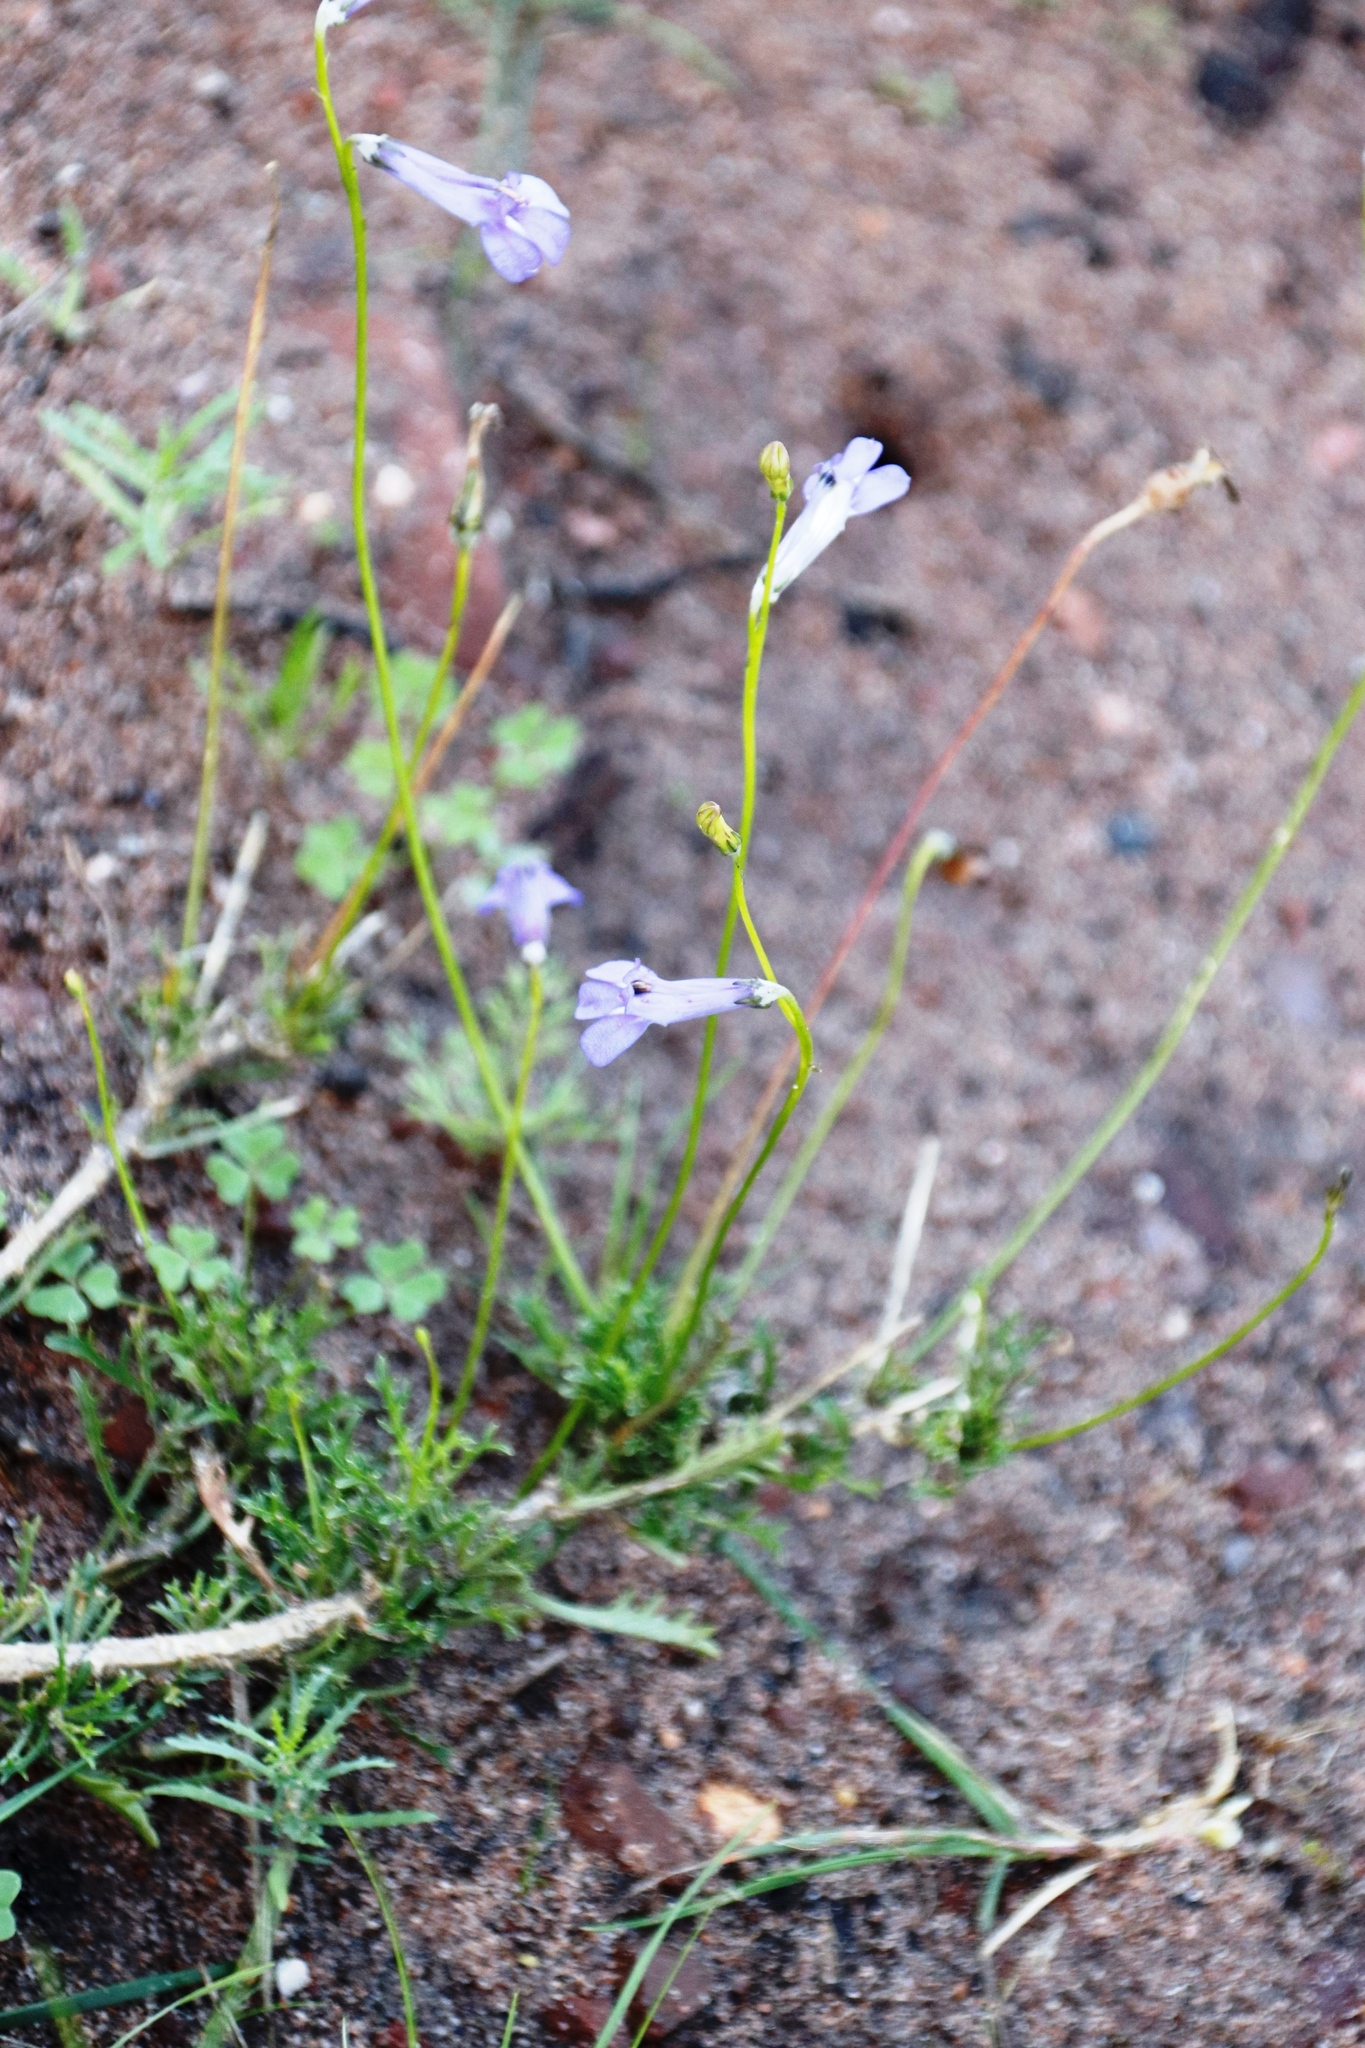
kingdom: Plantae
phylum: Tracheophyta
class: Magnoliopsida
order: Asterales
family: Campanulaceae
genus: Lobelia
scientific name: Lobelia coronopifolia
